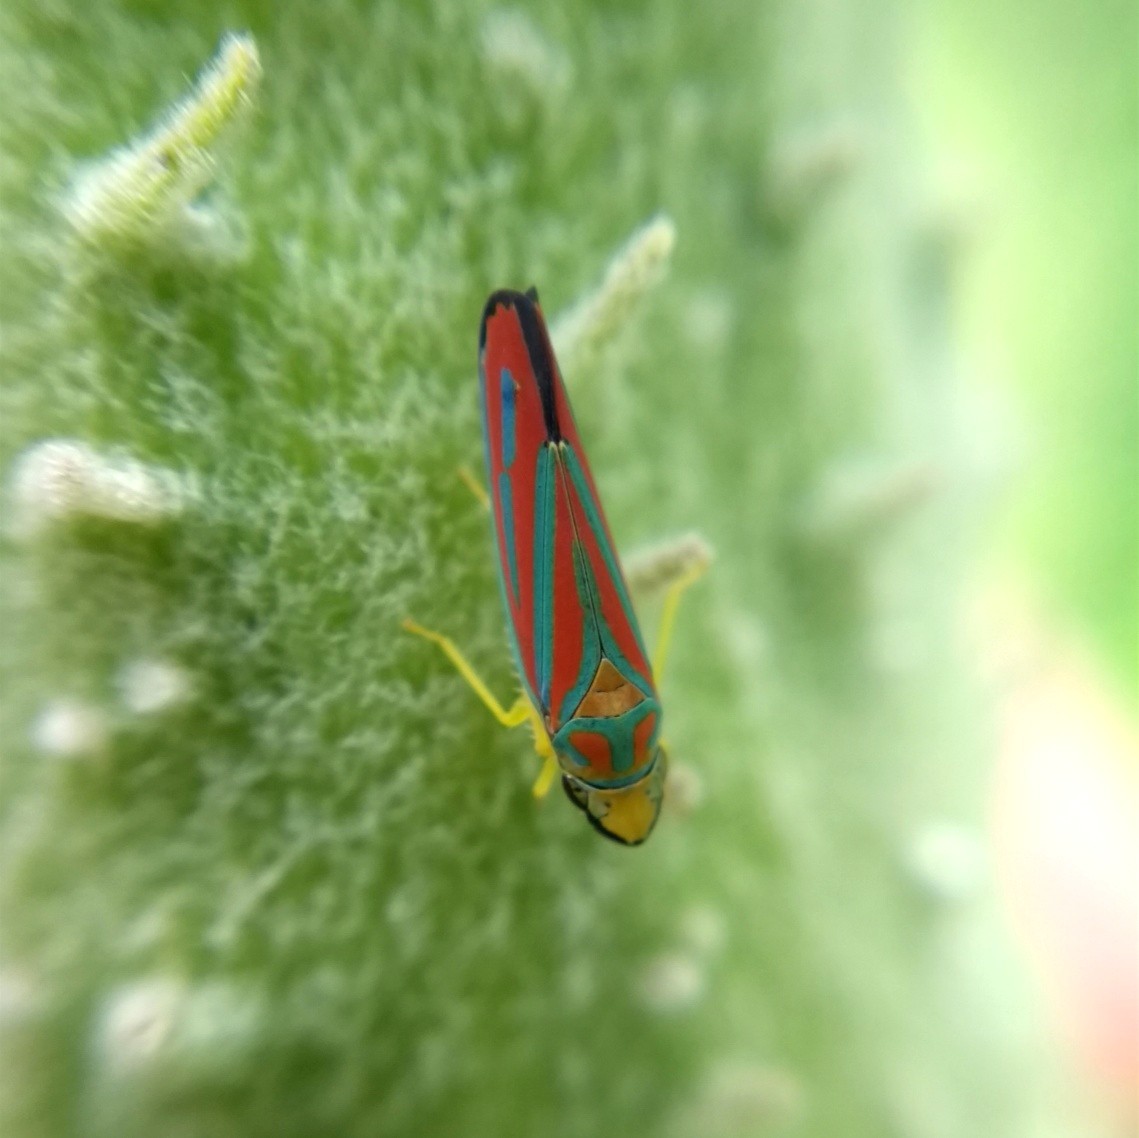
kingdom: Animalia
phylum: Arthropoda
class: Insecta
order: Hemiptera
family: Cicadellidae
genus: Graphocephala
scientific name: Graphocephala coccinea
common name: Candy-striped leafhopper
